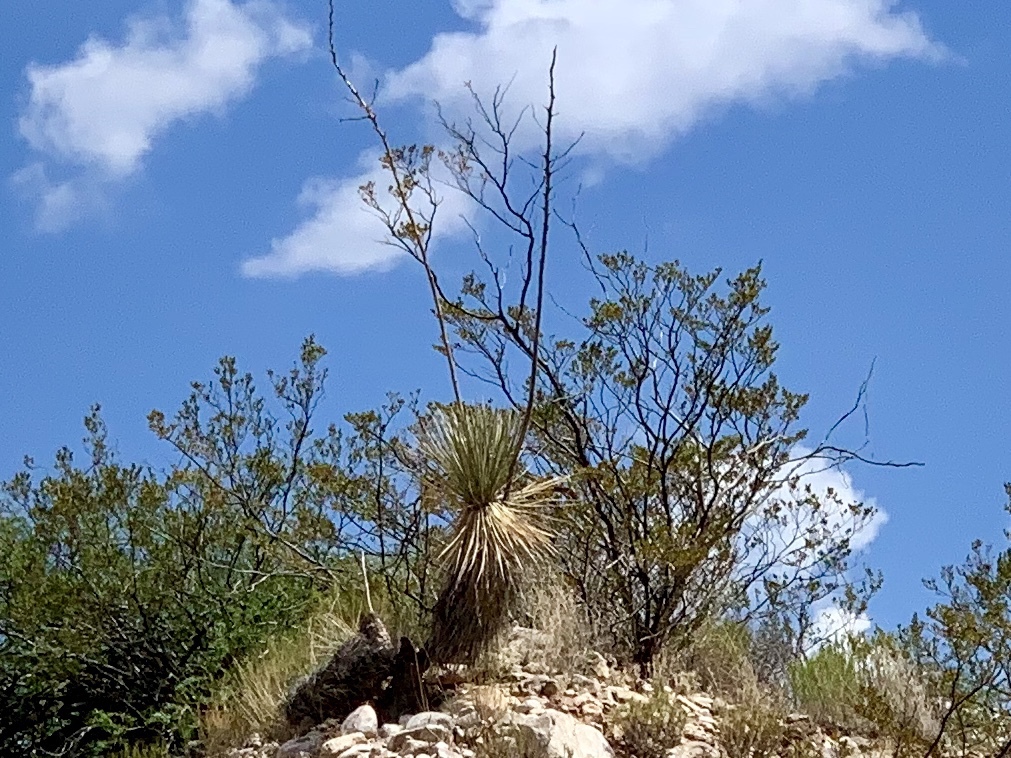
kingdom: Plantae
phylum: Tracheophyta
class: Liliopsida
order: Asparagales
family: Asparagaceae
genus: Yucca
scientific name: Yucca elata
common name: Palmella
